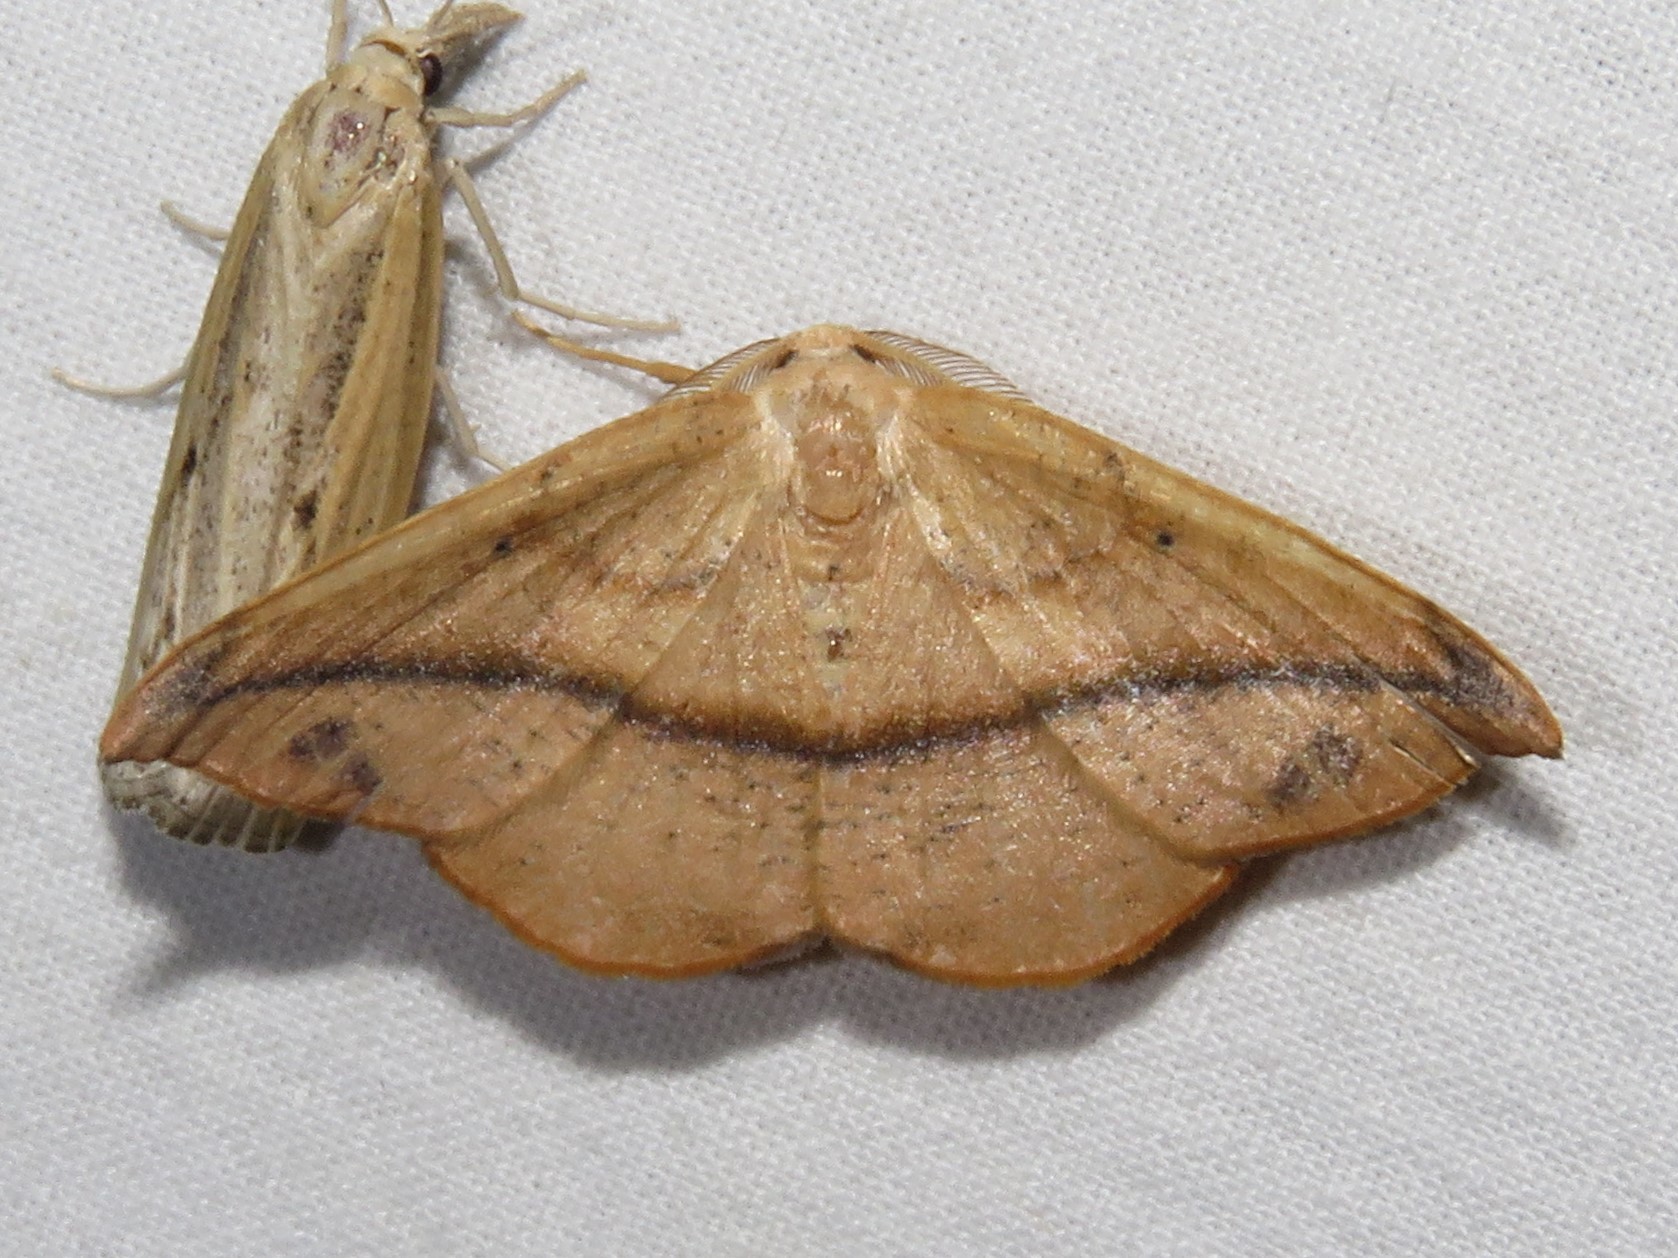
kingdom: Animalia
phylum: Arthropoda
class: Insecta
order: Lepidoptera
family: Geometridae
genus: Patalene
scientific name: Patalene olyzonaria
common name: Juniper geometer moth
